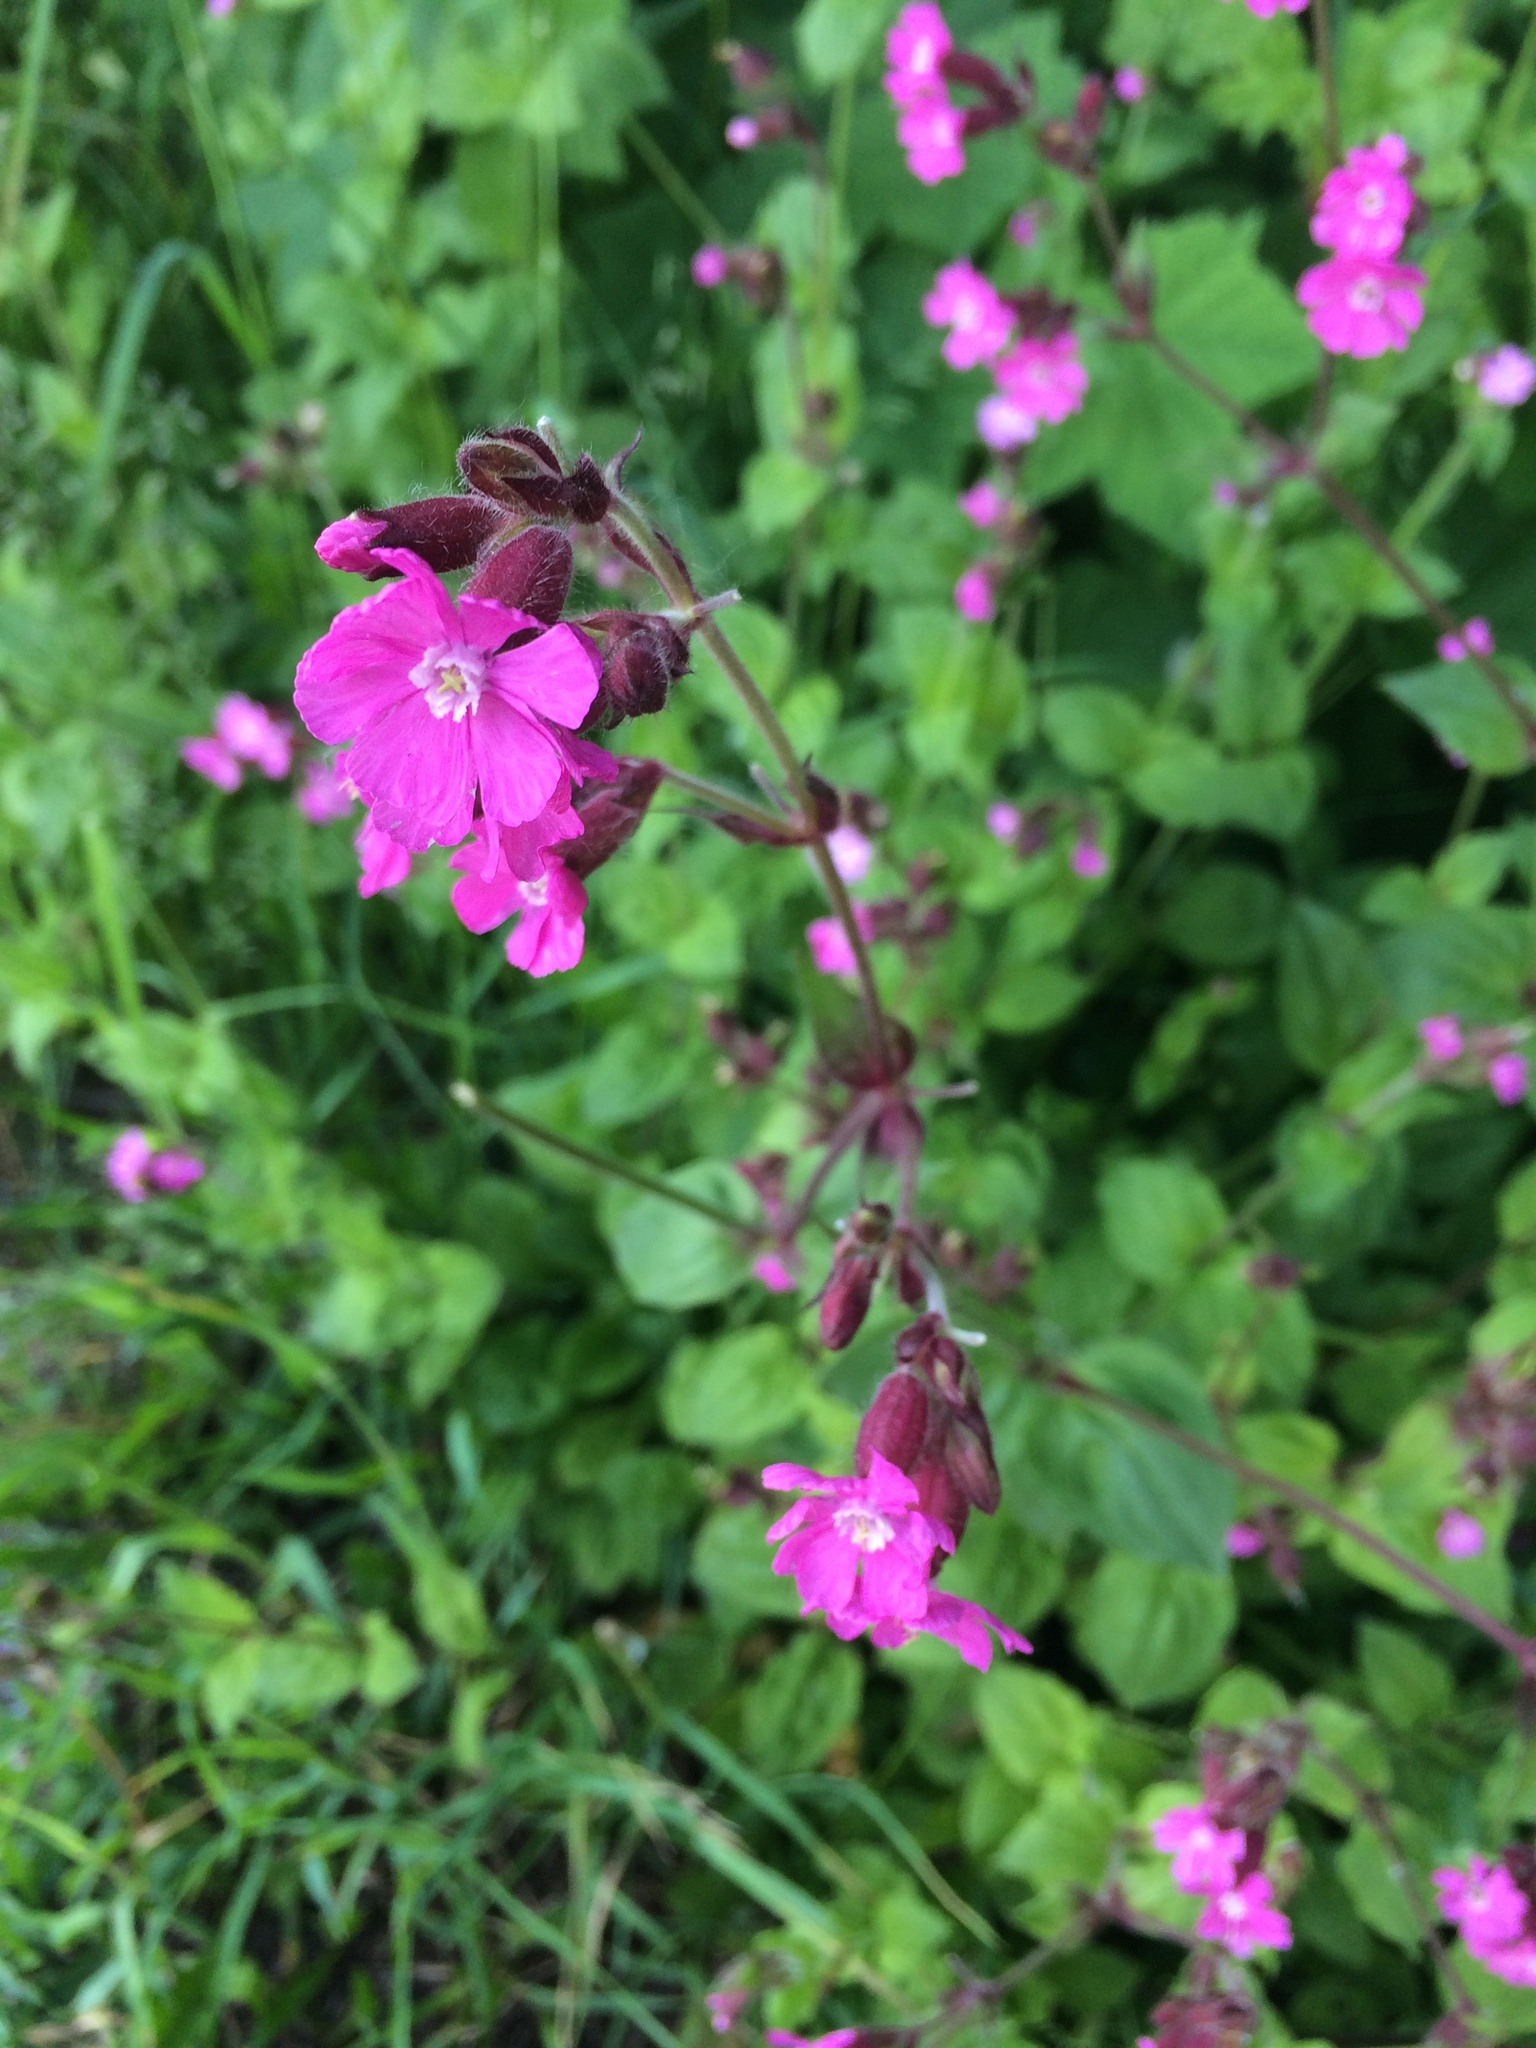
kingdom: Plantae
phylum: Tracheophyta
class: Magnoliopsida
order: Caryophyllales
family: Caryophyllaceae
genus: Silene
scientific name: Silene dioica
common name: Red campion
